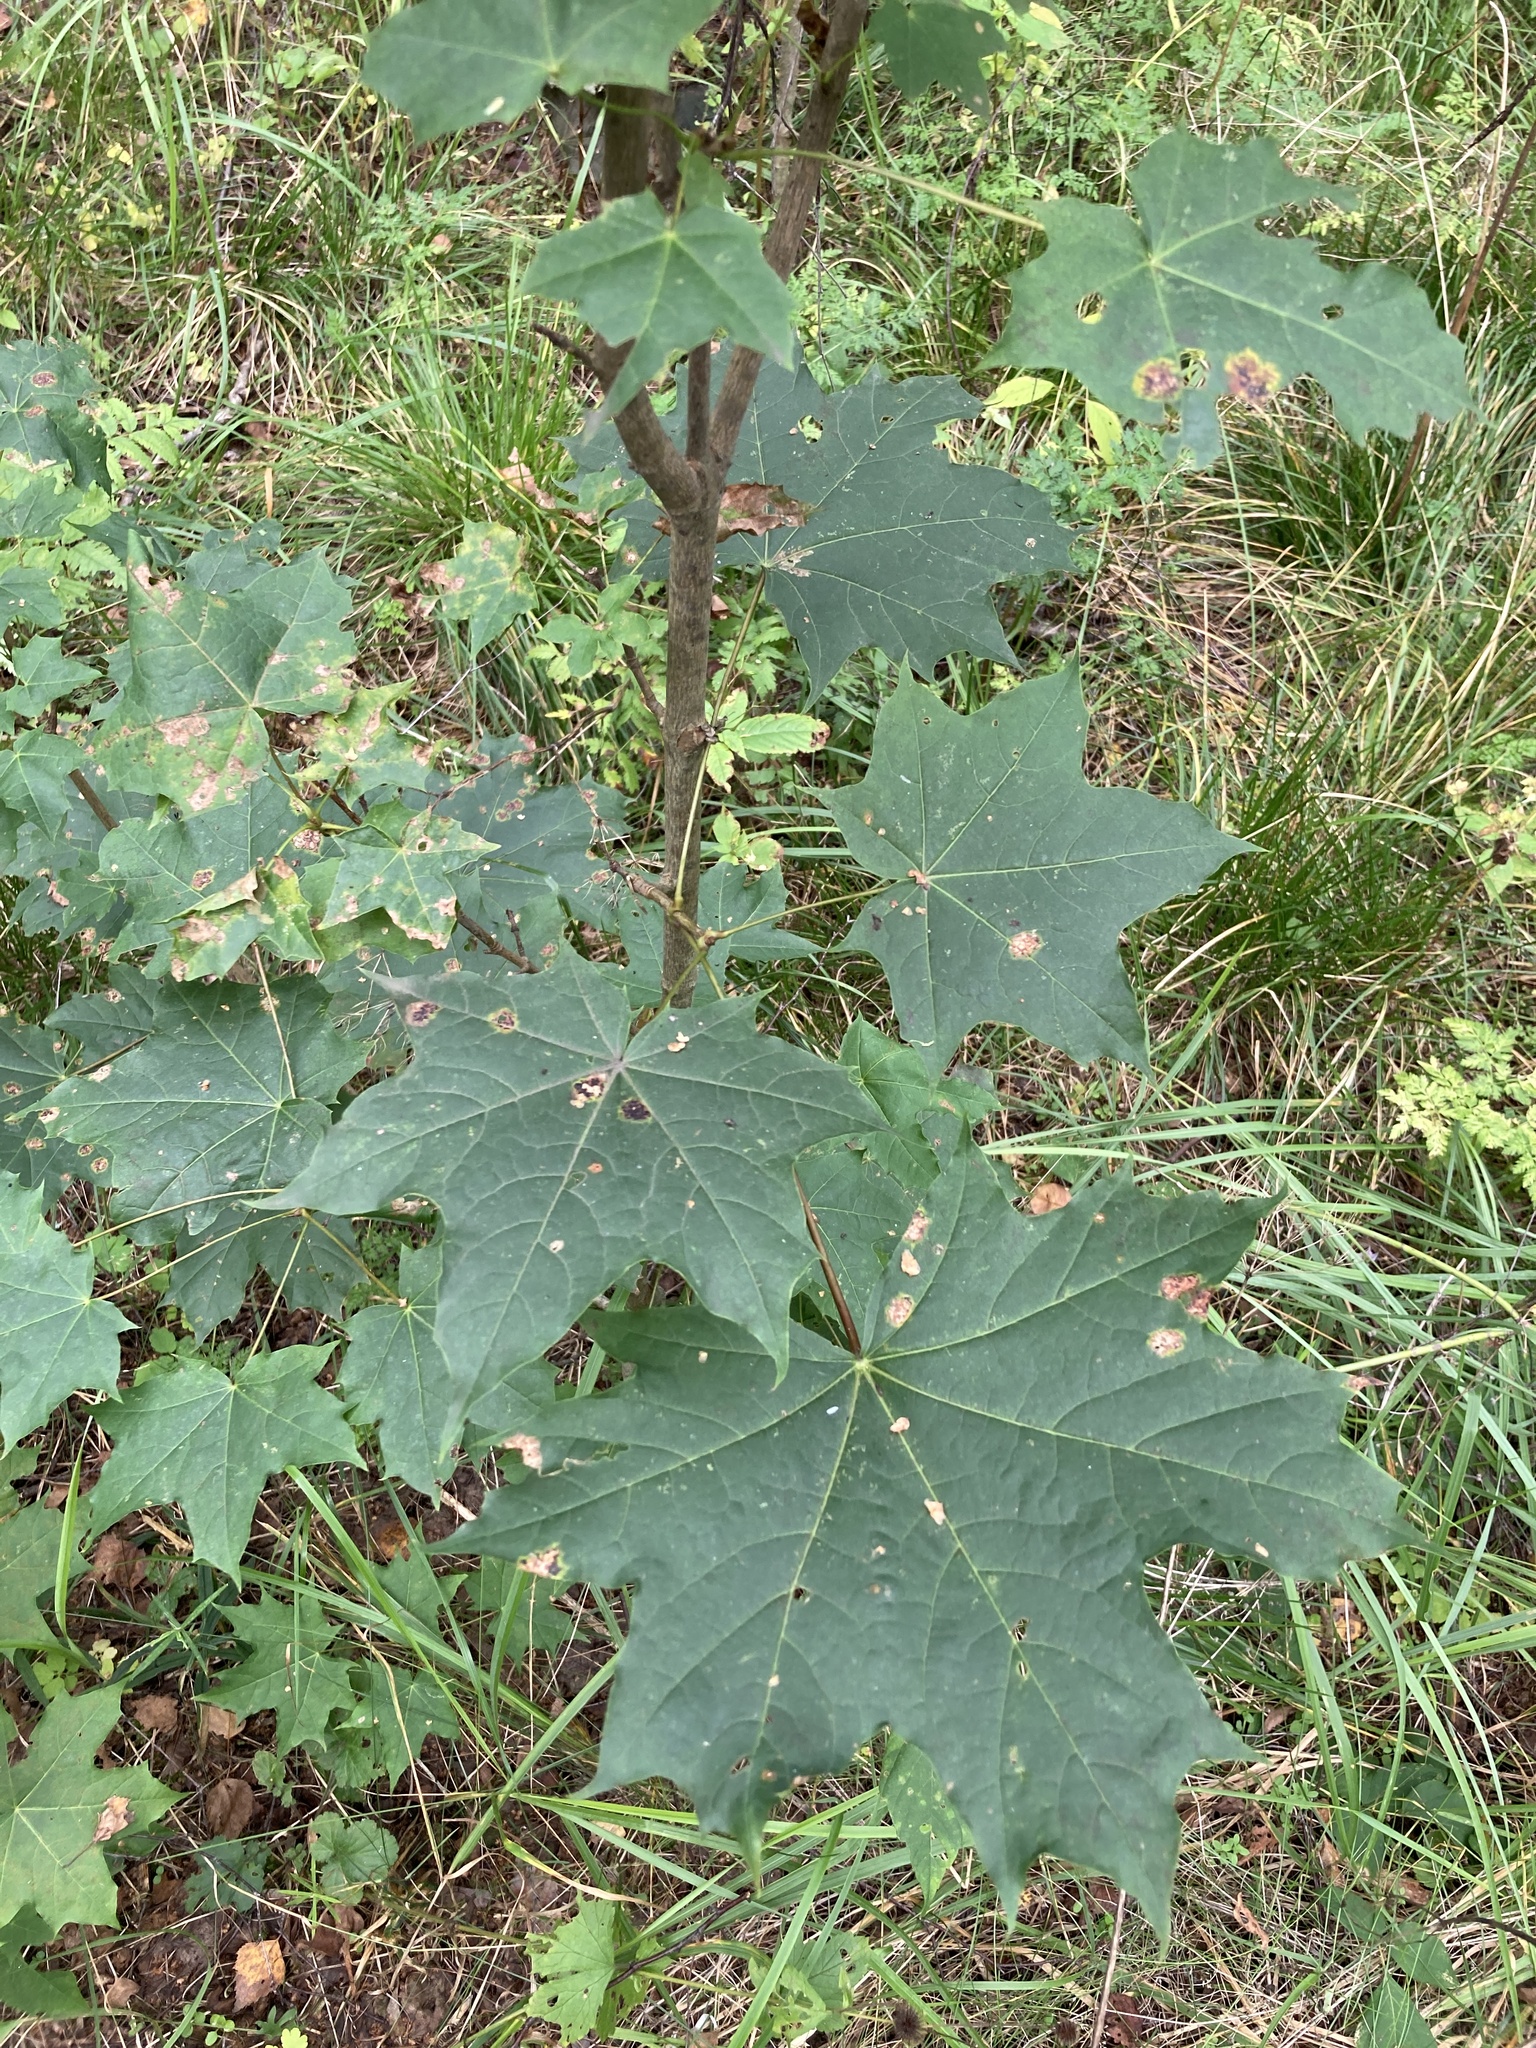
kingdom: Plantae
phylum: Tracheophyta
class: Magnoliopsida
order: Sapindales
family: Sapindaceae
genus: Acer
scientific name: Acer platanoides
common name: Norway maple
